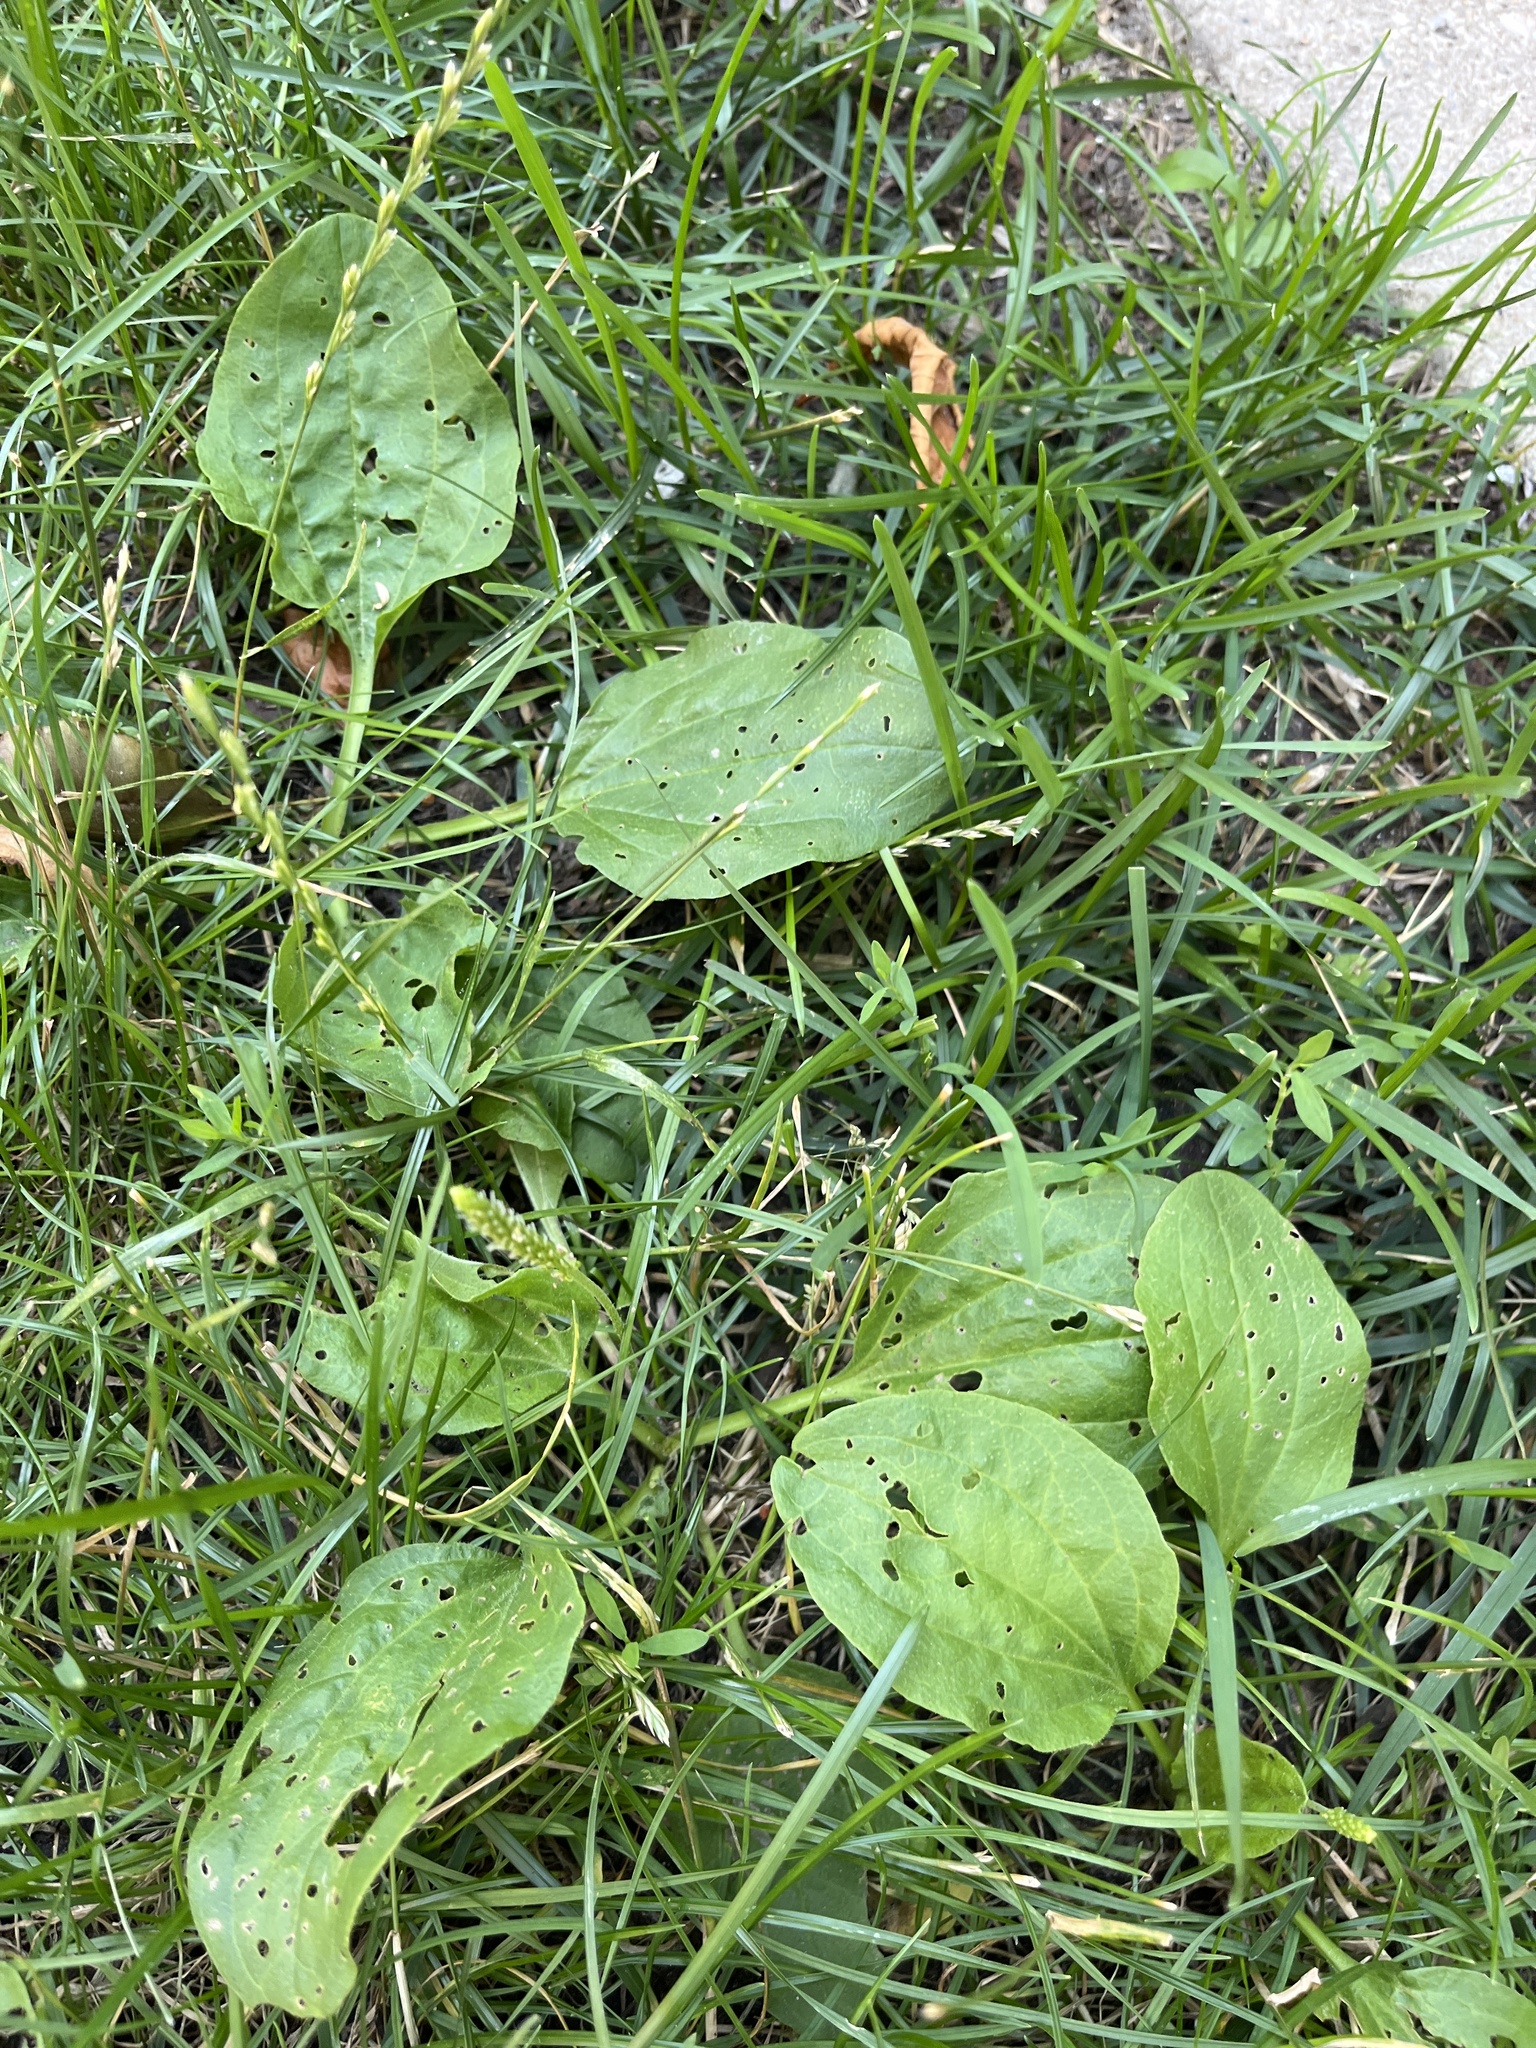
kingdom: Plantae
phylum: Tracheophyta
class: Magnoliopsida
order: Lamiales
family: Plantaginaceae
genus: Plantago
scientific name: Plantago major
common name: Common plantain
